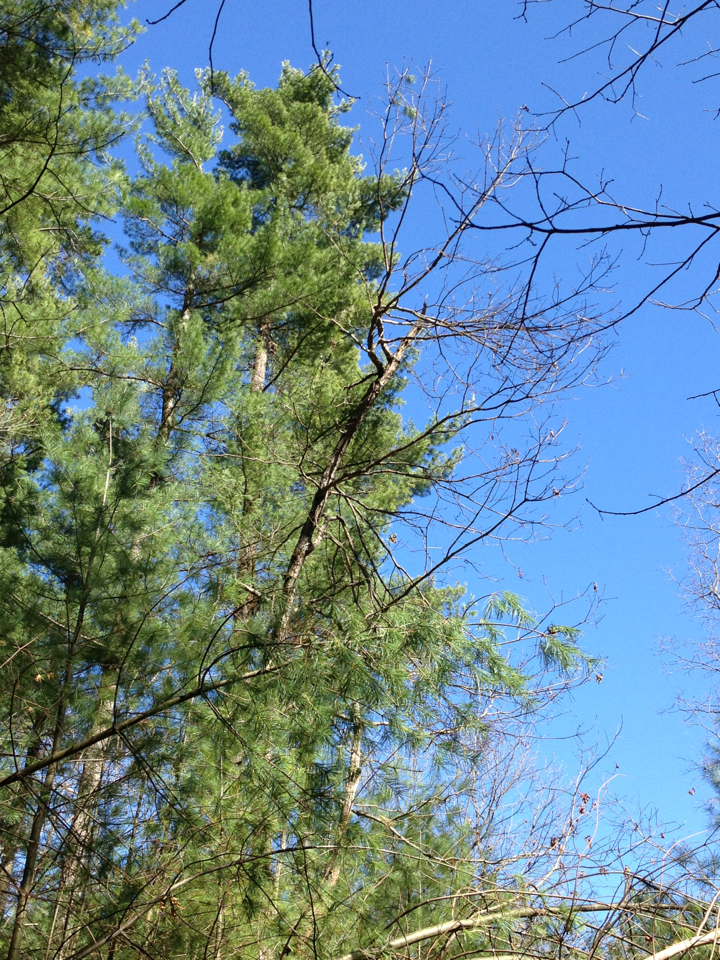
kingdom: Plantae
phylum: Tracheophyta
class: Pinopsida
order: Pinales
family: Pinaceae
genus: Pinus
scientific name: Pinus strobus
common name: Weymouth pine
